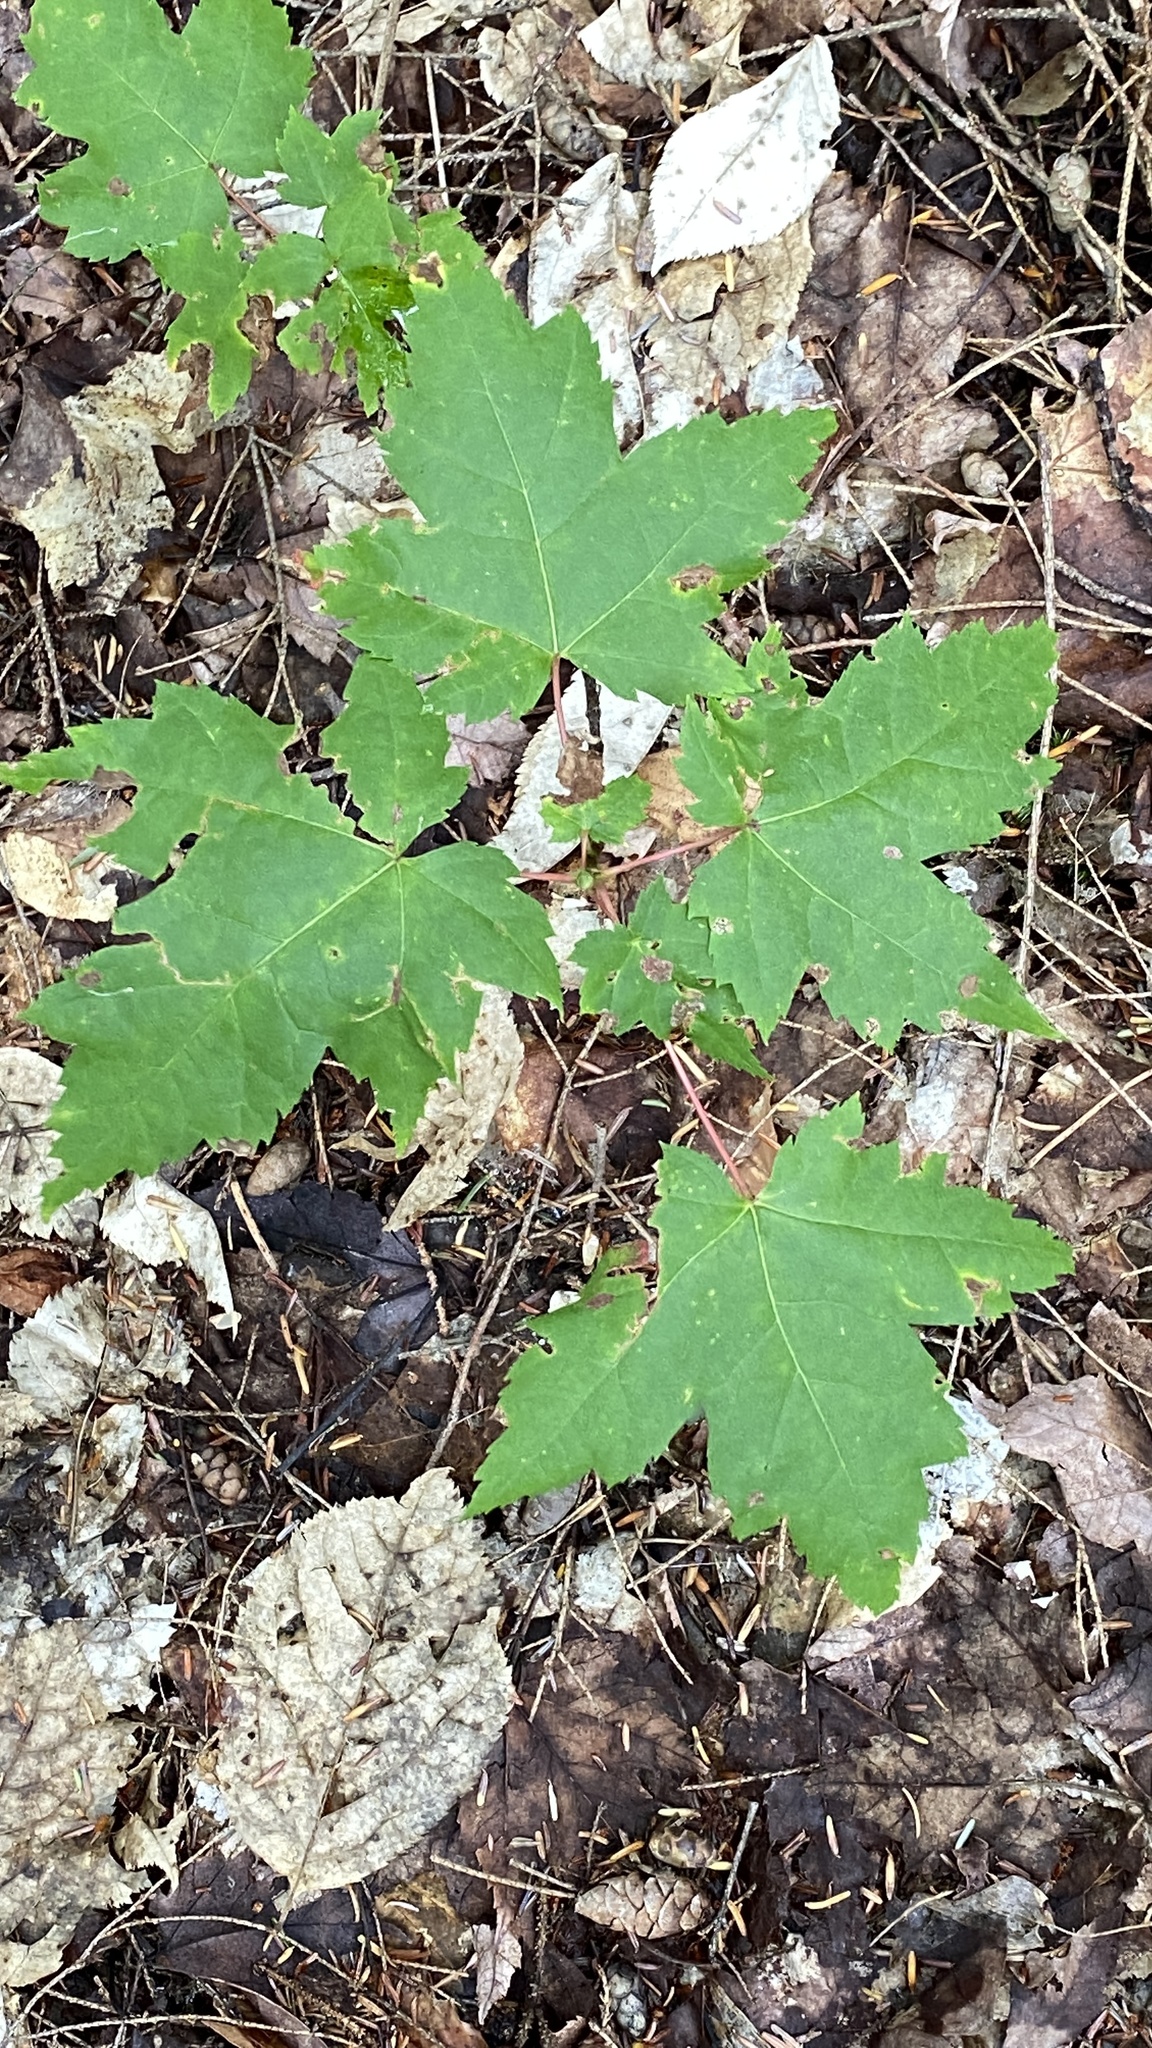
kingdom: Plantae
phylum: Tracheophyta
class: Magnoliopsida
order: Sapindales
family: Sapindaceae
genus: Acer
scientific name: Acer rubrum
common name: Red maple
